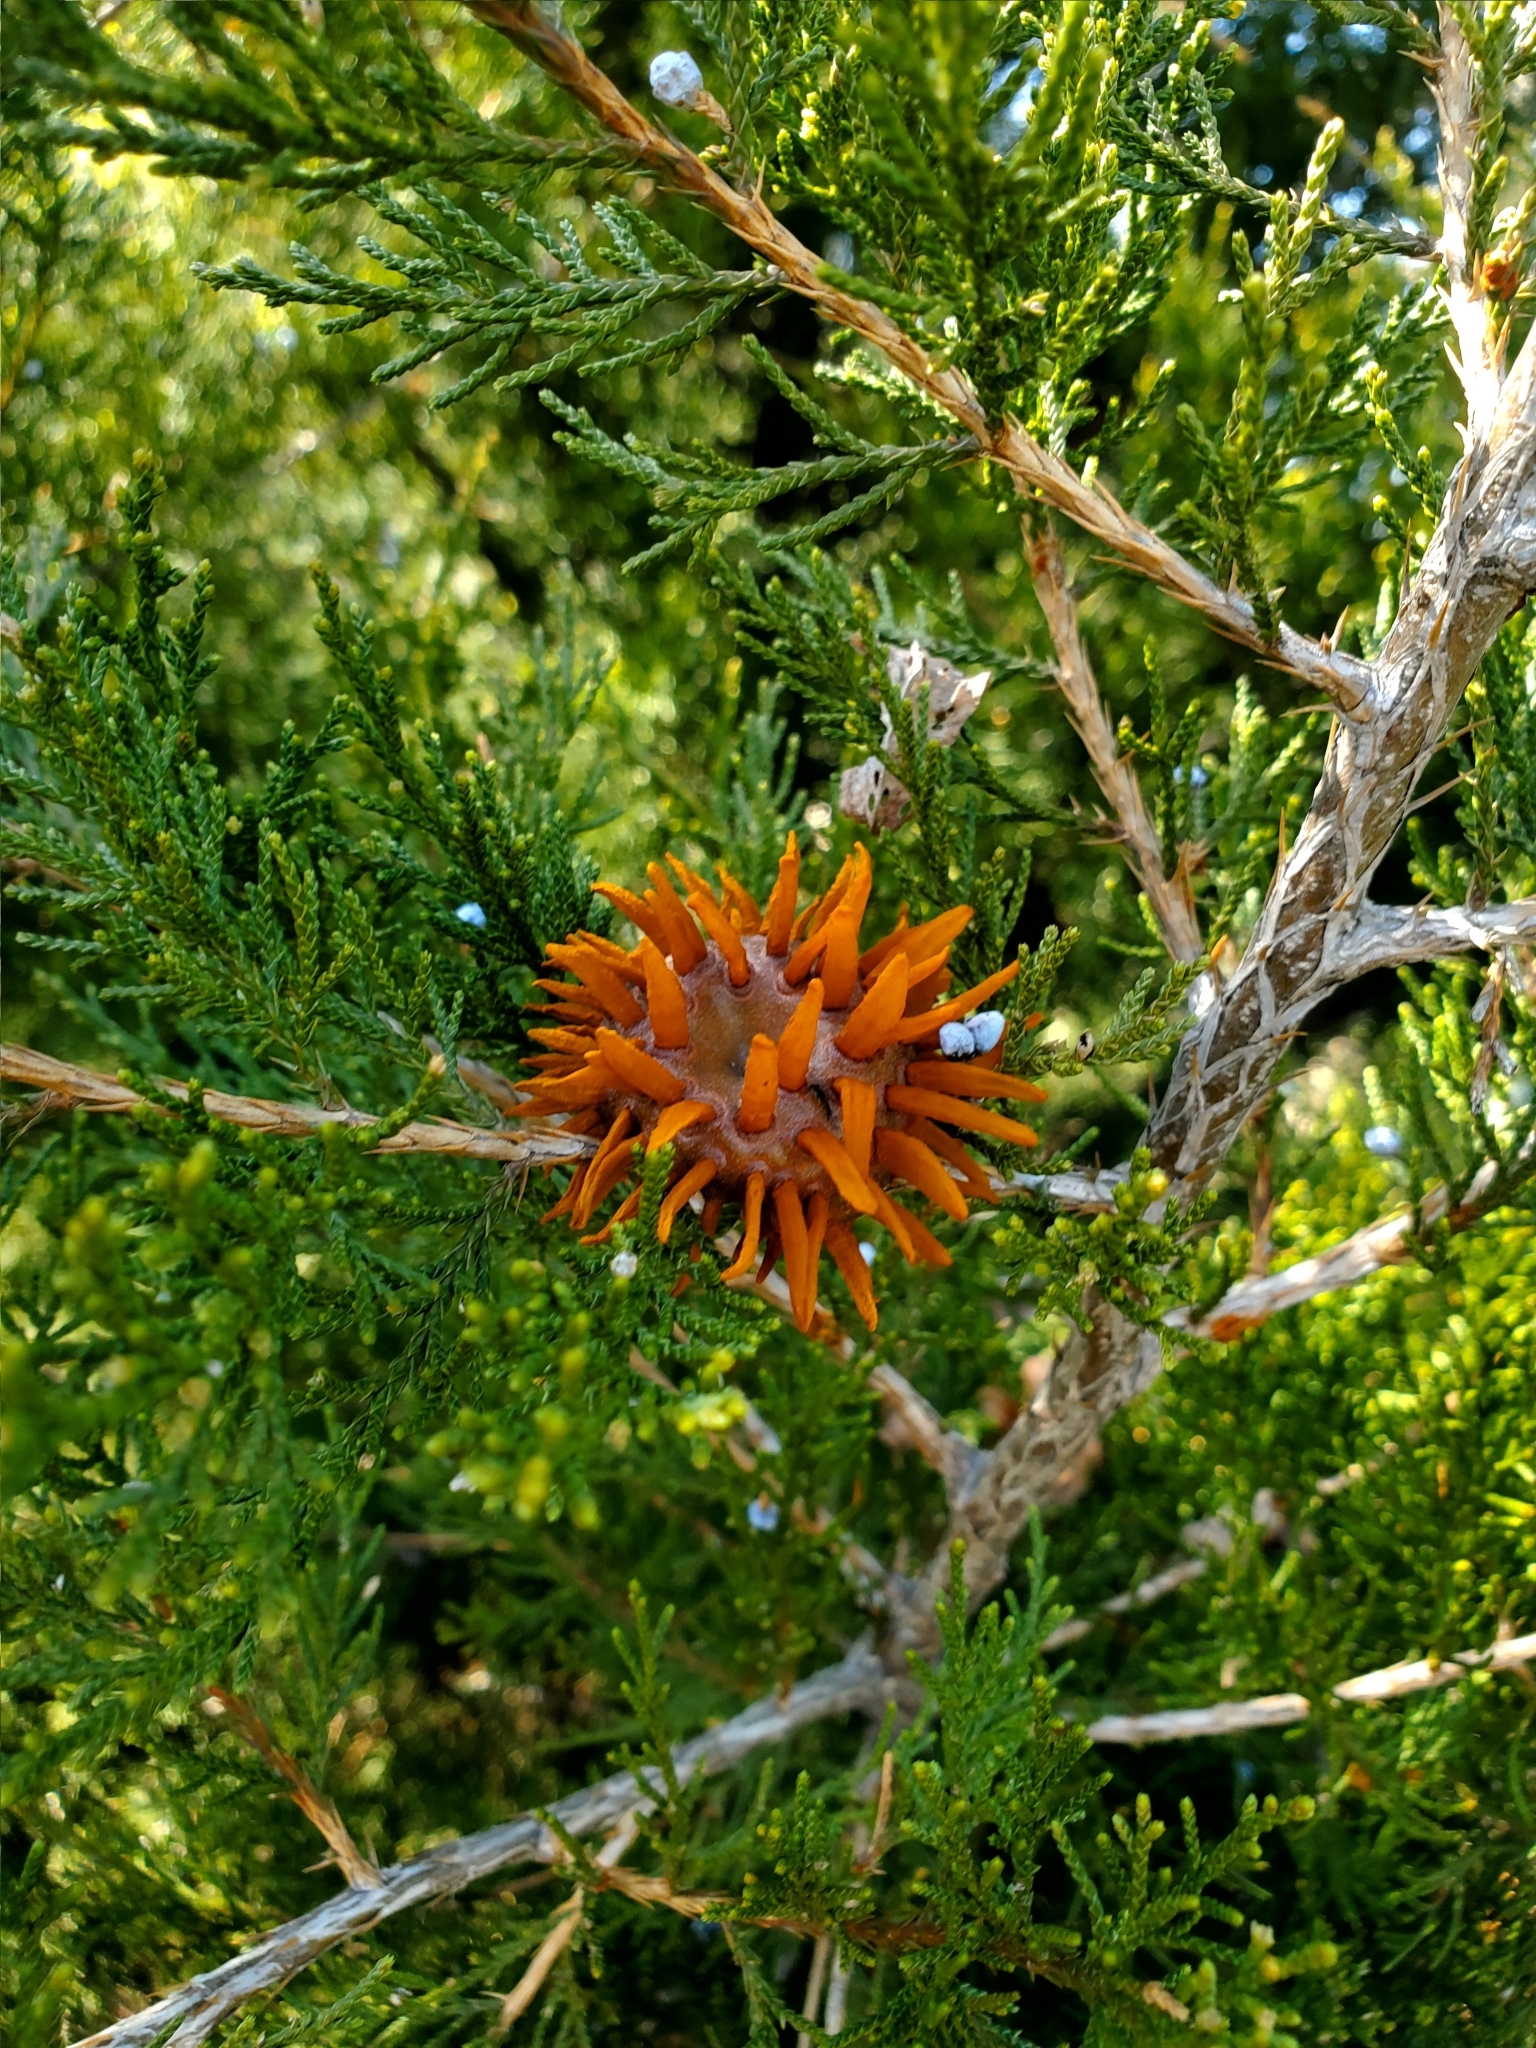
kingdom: Fungi
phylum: Basidiomycota
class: Pucciniomycetes
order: Pucciniales
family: Gymnosporangiaceae
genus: Gymnosporangium
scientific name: Gymnosporangium juniperi-virginianae
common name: Juniper-apple rust
